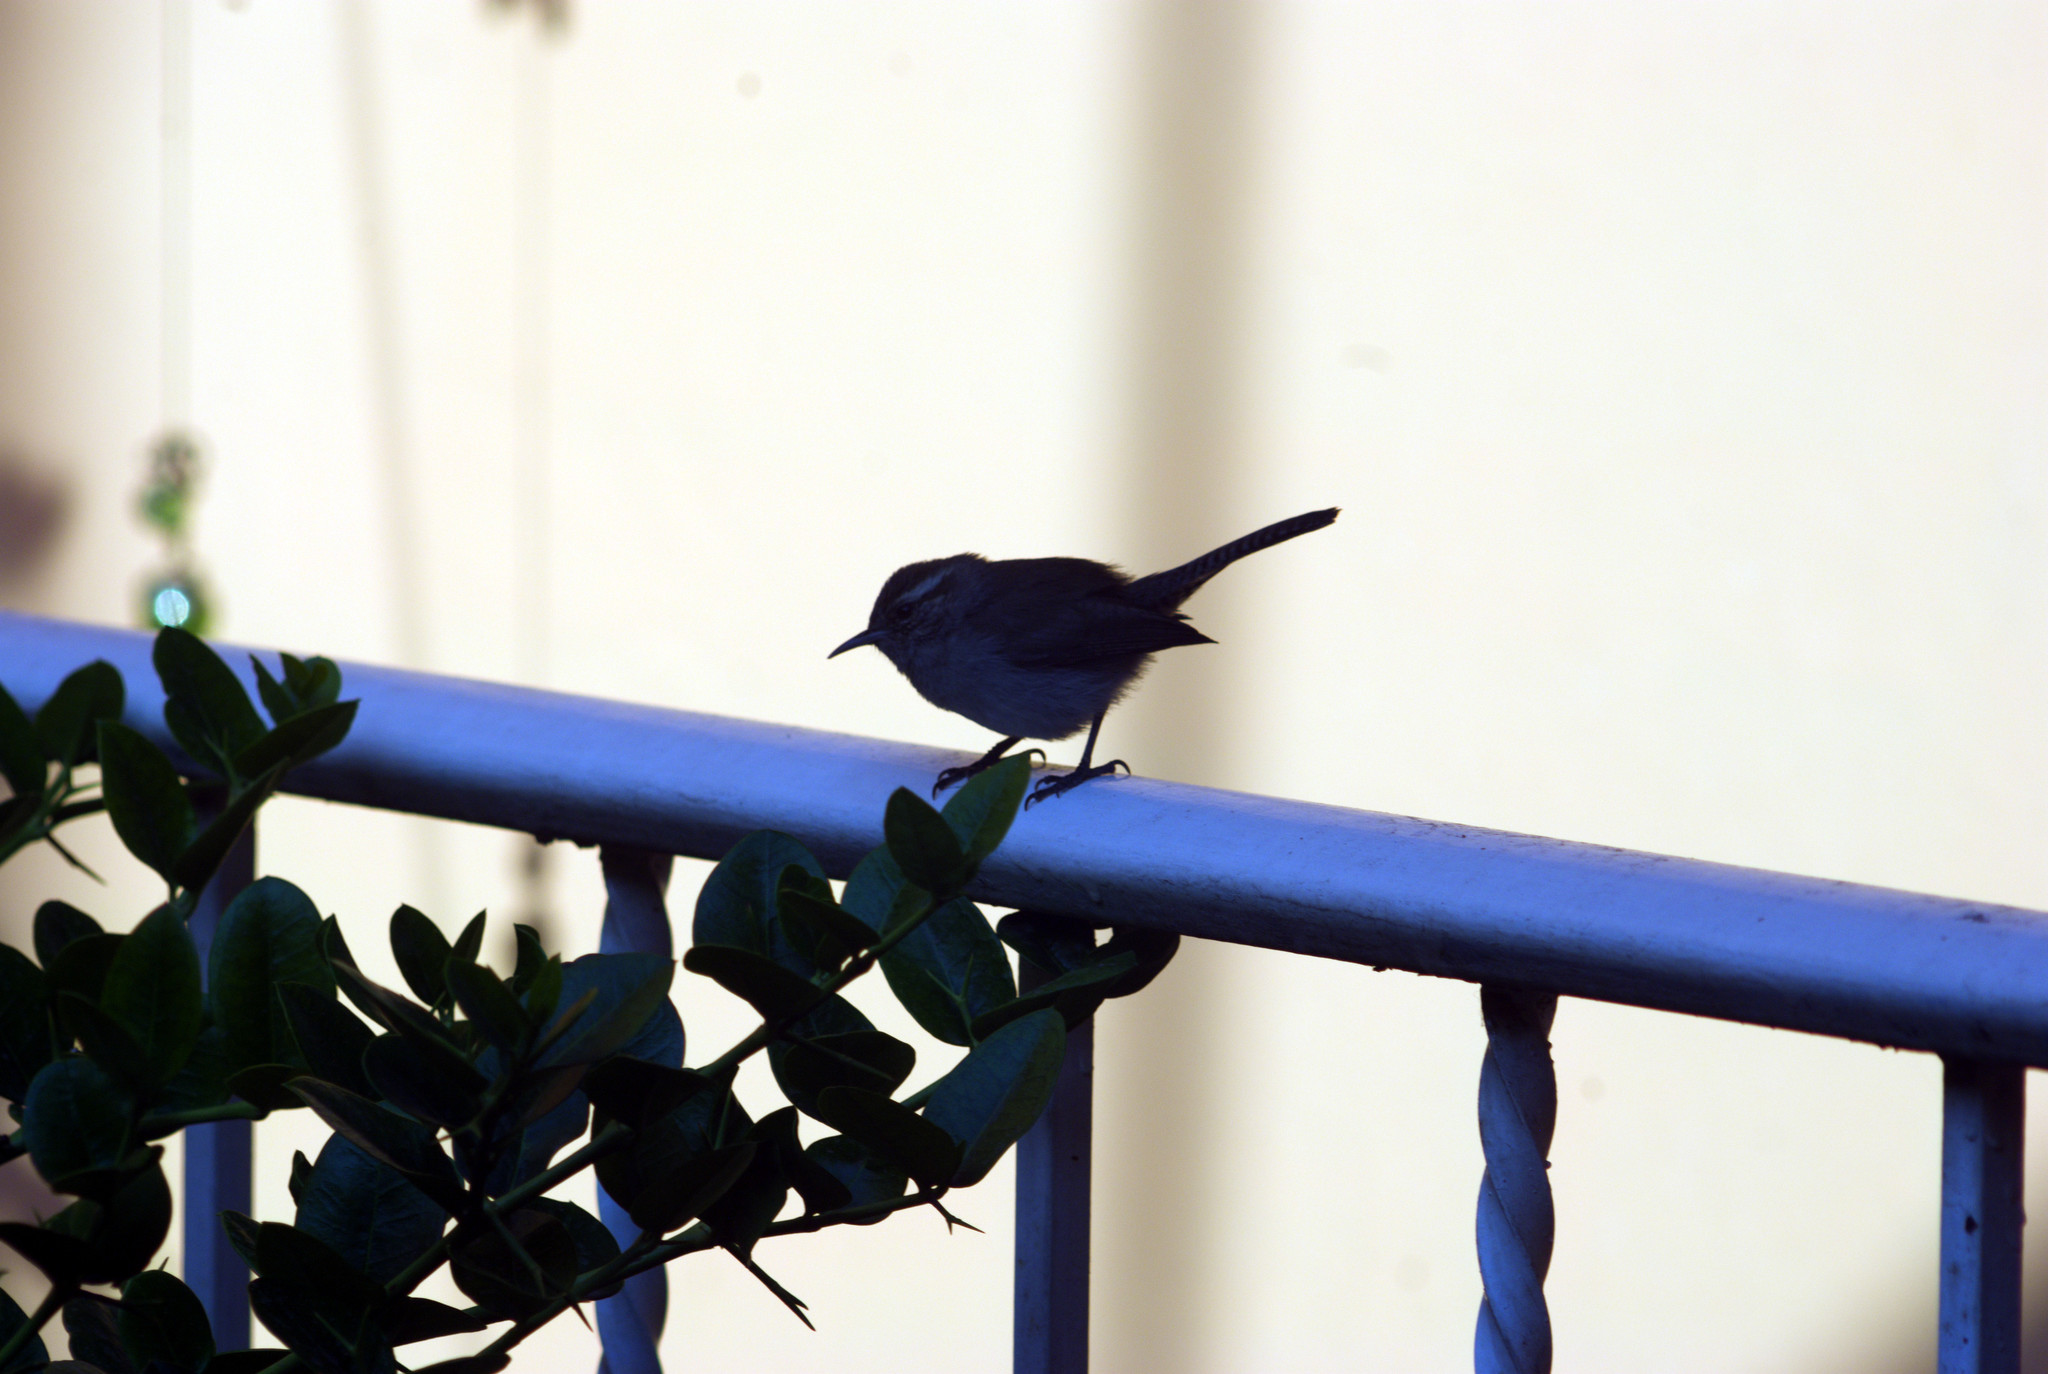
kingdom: Animalia
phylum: Chordata
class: Aves
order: Passeriformes
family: Troglodytidae
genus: Thryomanes
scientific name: Thryomanes bewickii
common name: Bewick's wren
